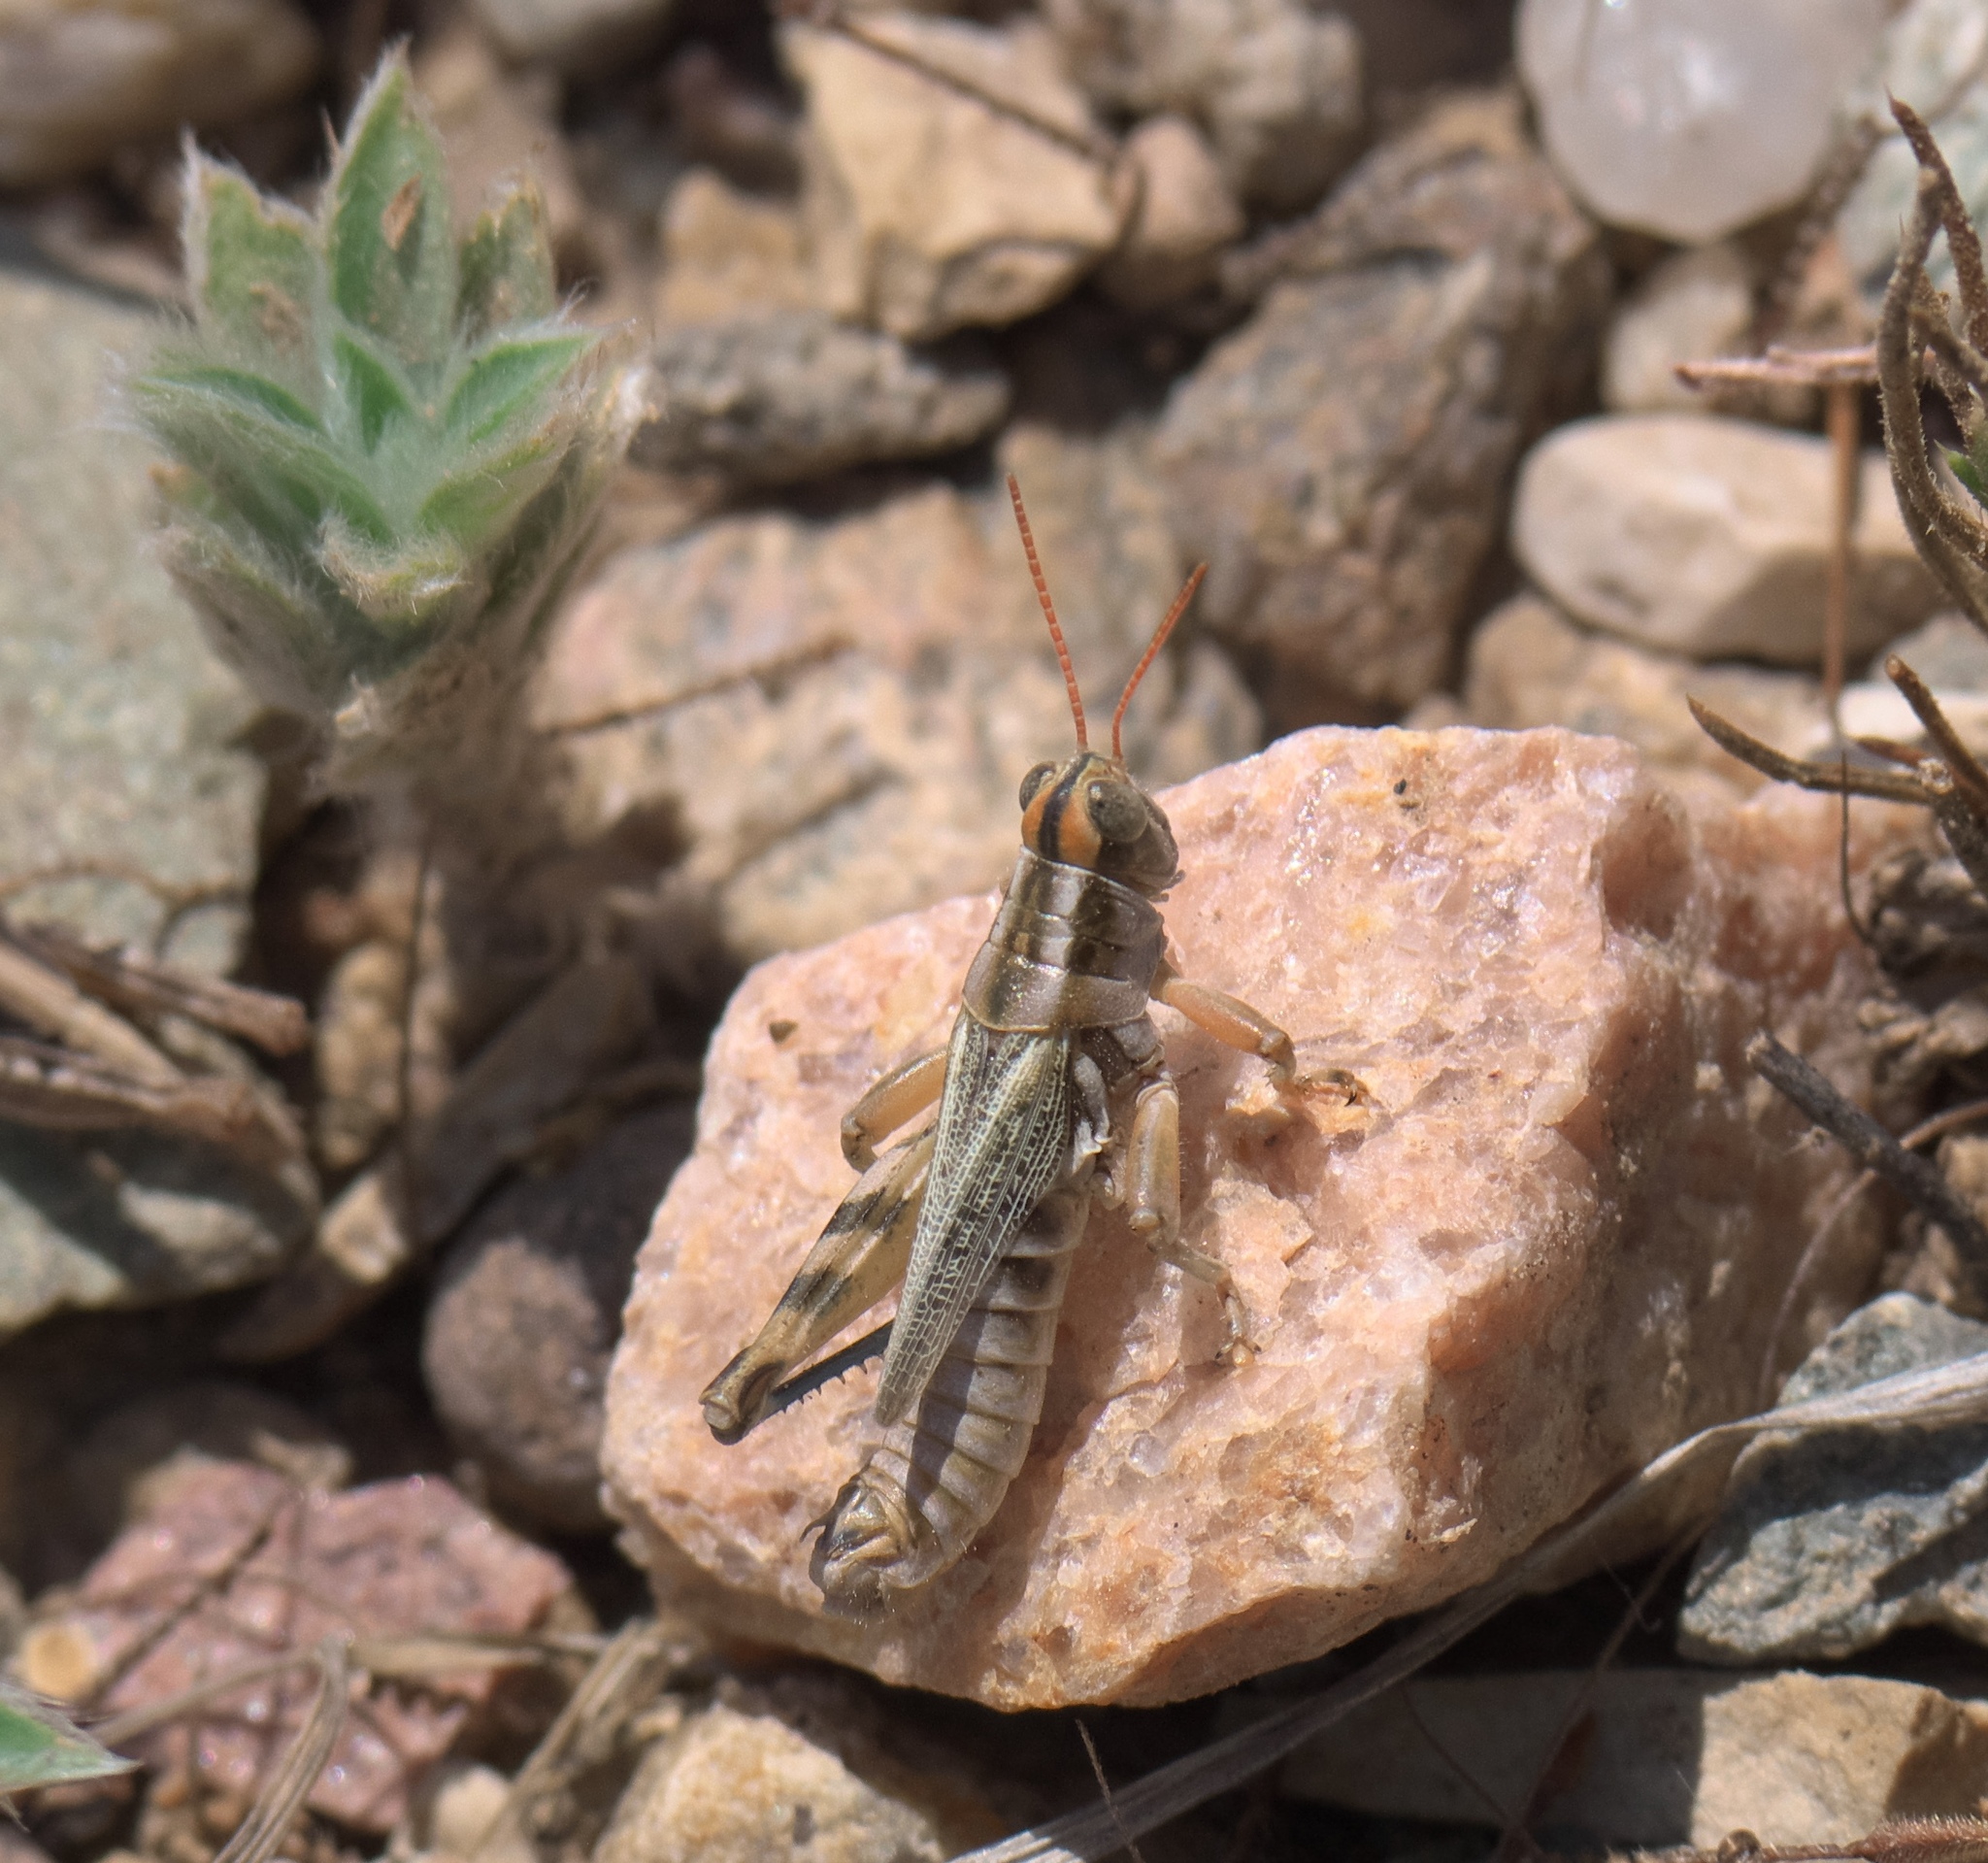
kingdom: Animalia
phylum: Arthropoda
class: Insecta
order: Orthoptera
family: Acrididae
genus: Aeoloplides
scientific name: Aeoloplides turnbulli
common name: Russianthistle grasshopper
